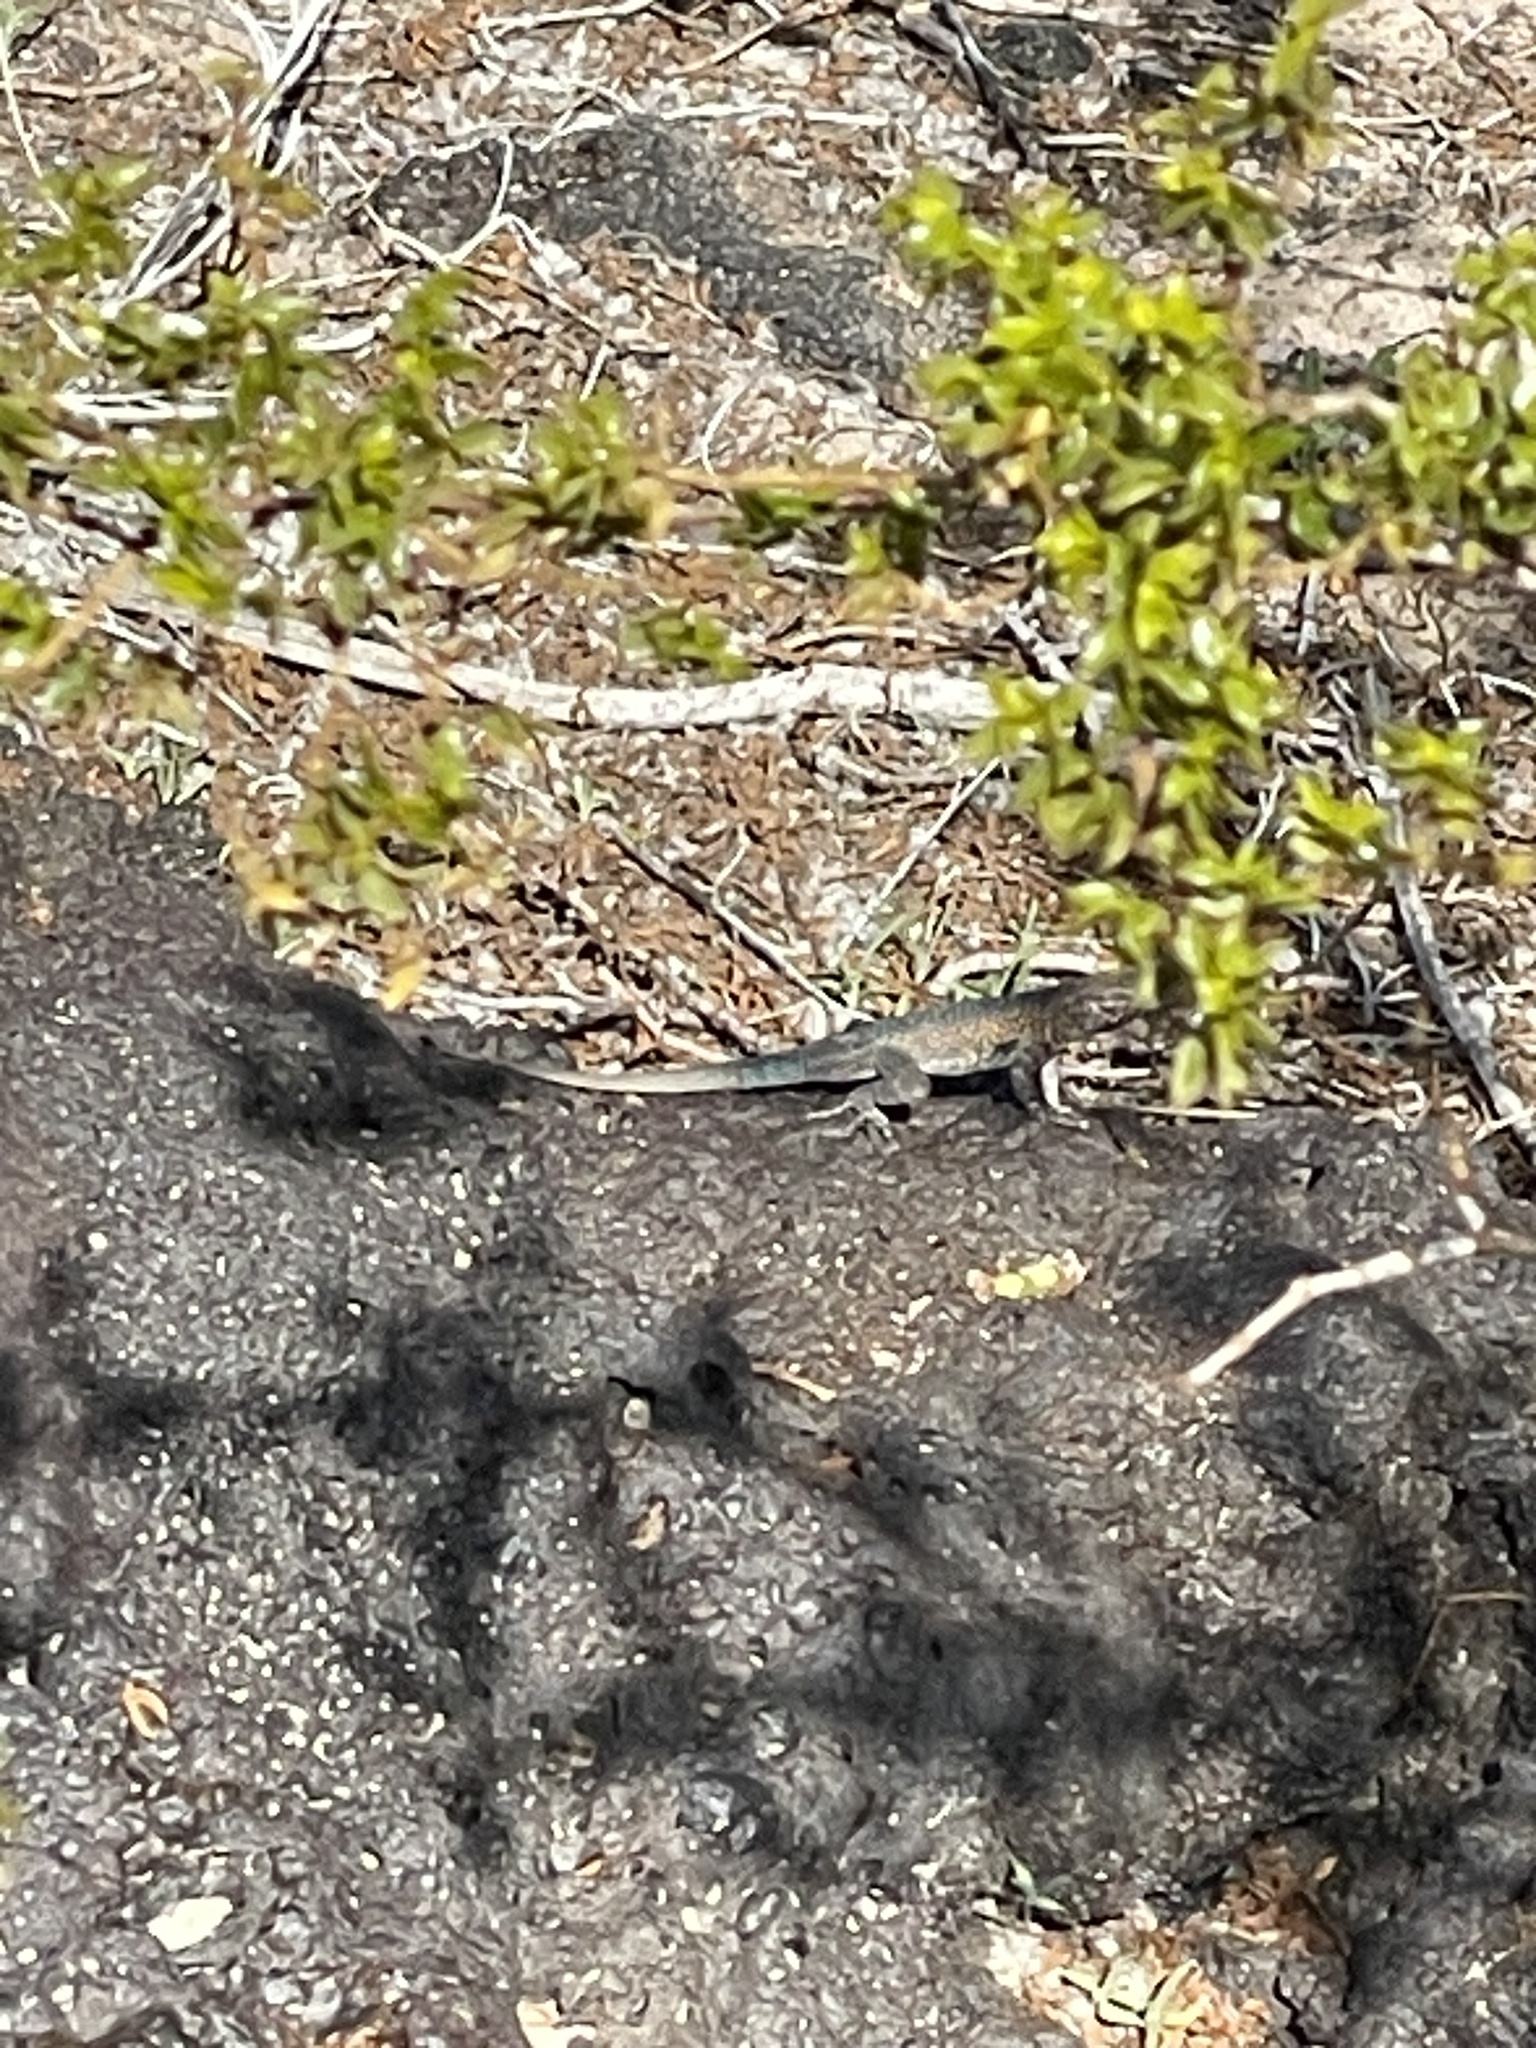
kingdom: Animalia
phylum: Chordata
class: Squamata
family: Phrynosomatidae
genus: Uta
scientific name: Uta stansburiana
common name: Side-blotched lizard
